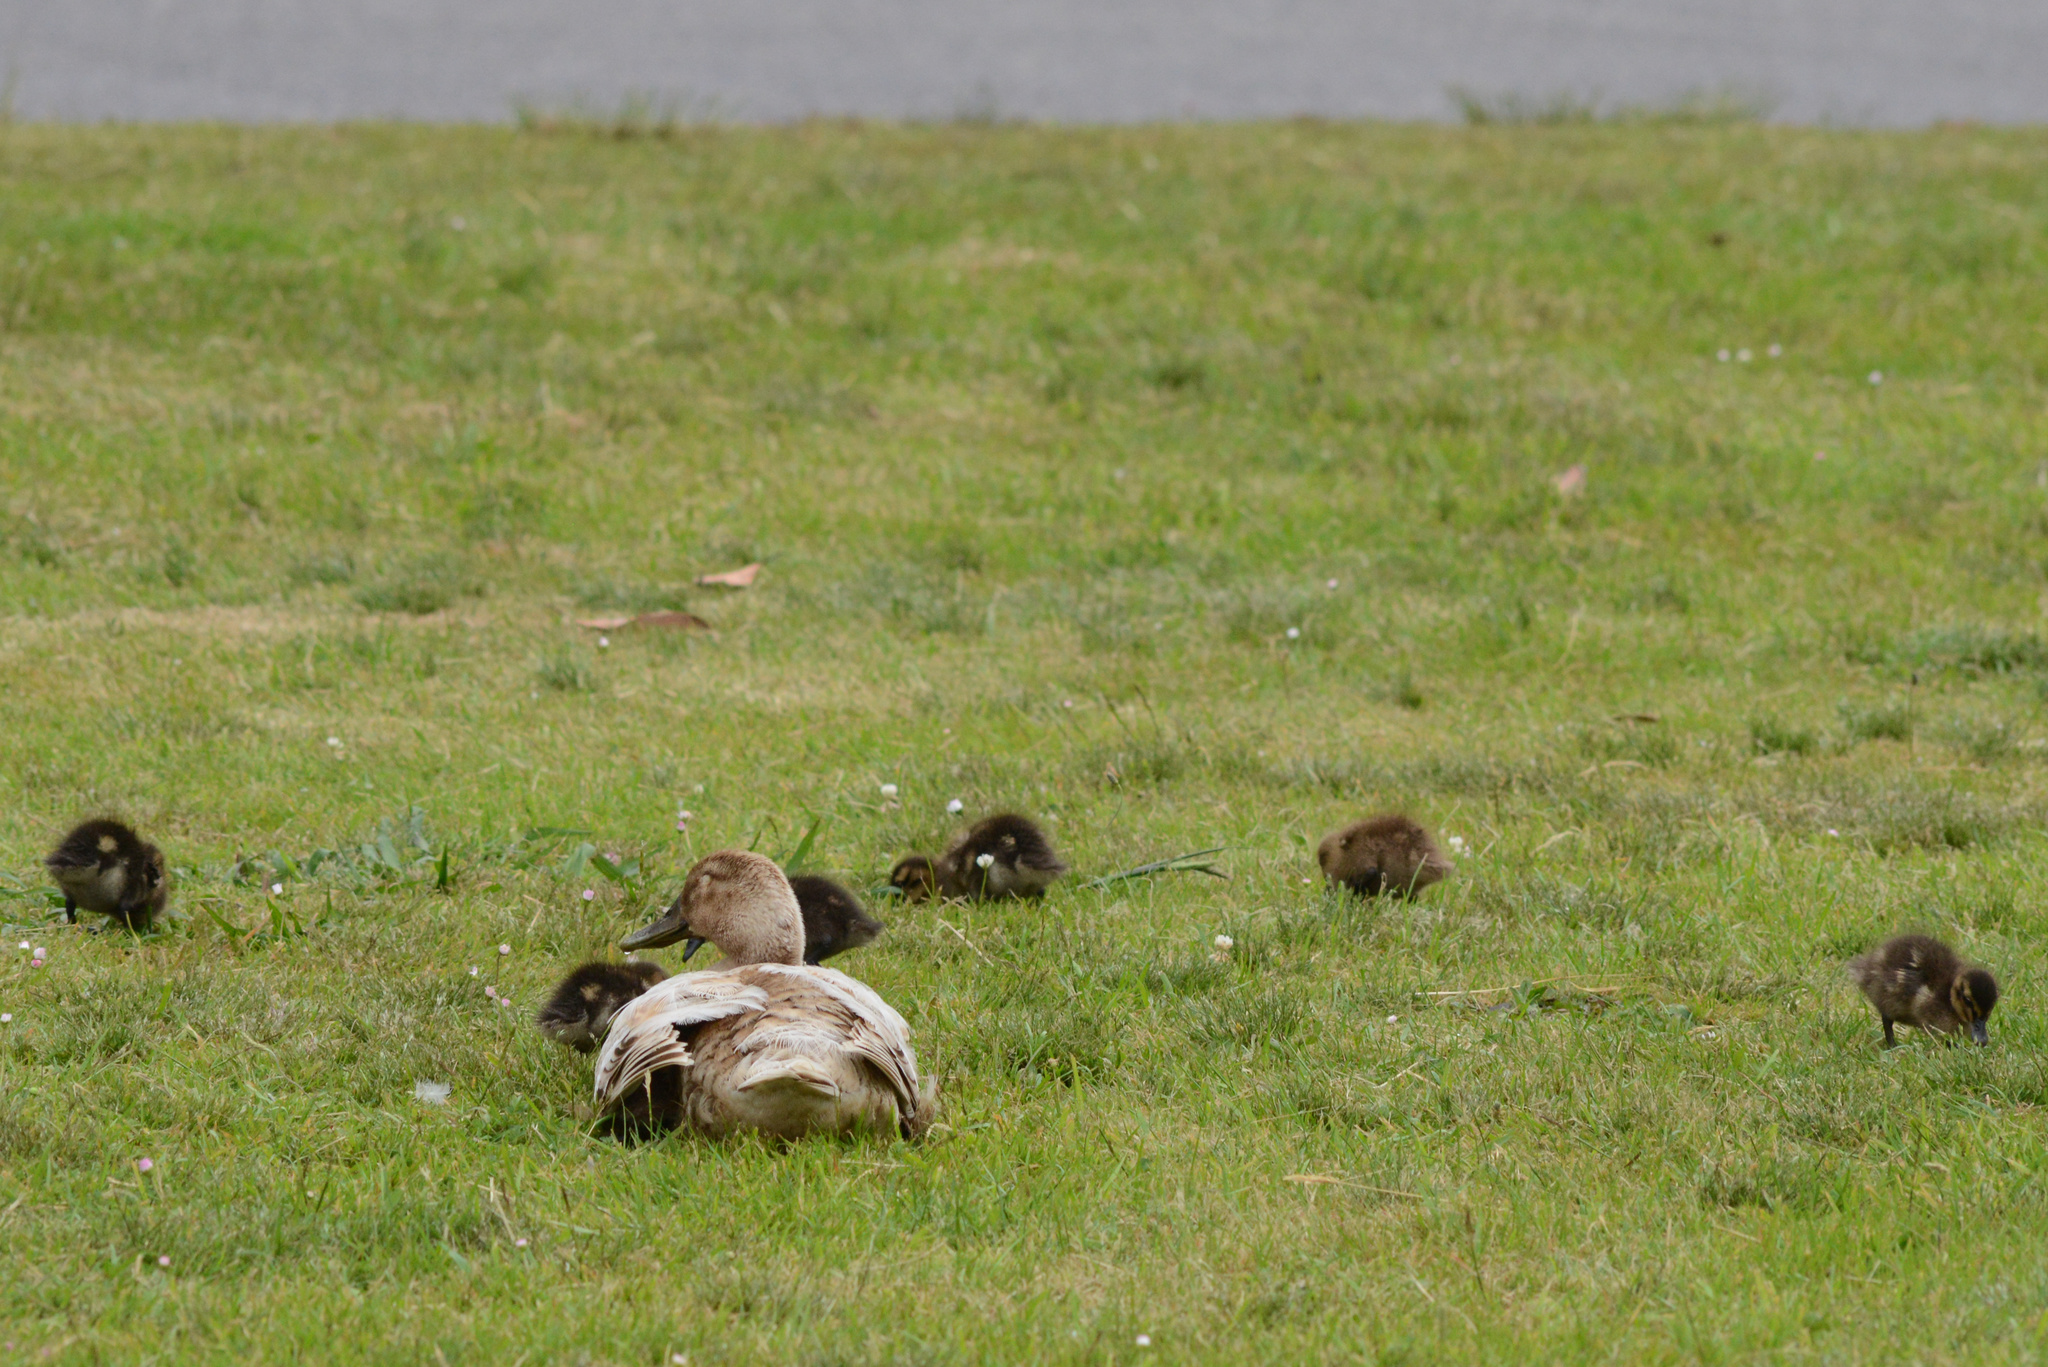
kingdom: Animalia
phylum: Chordata
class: Aves
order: Anseriformes
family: Anatidae
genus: Anas
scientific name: Anas platyrhynchos
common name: Mallard
